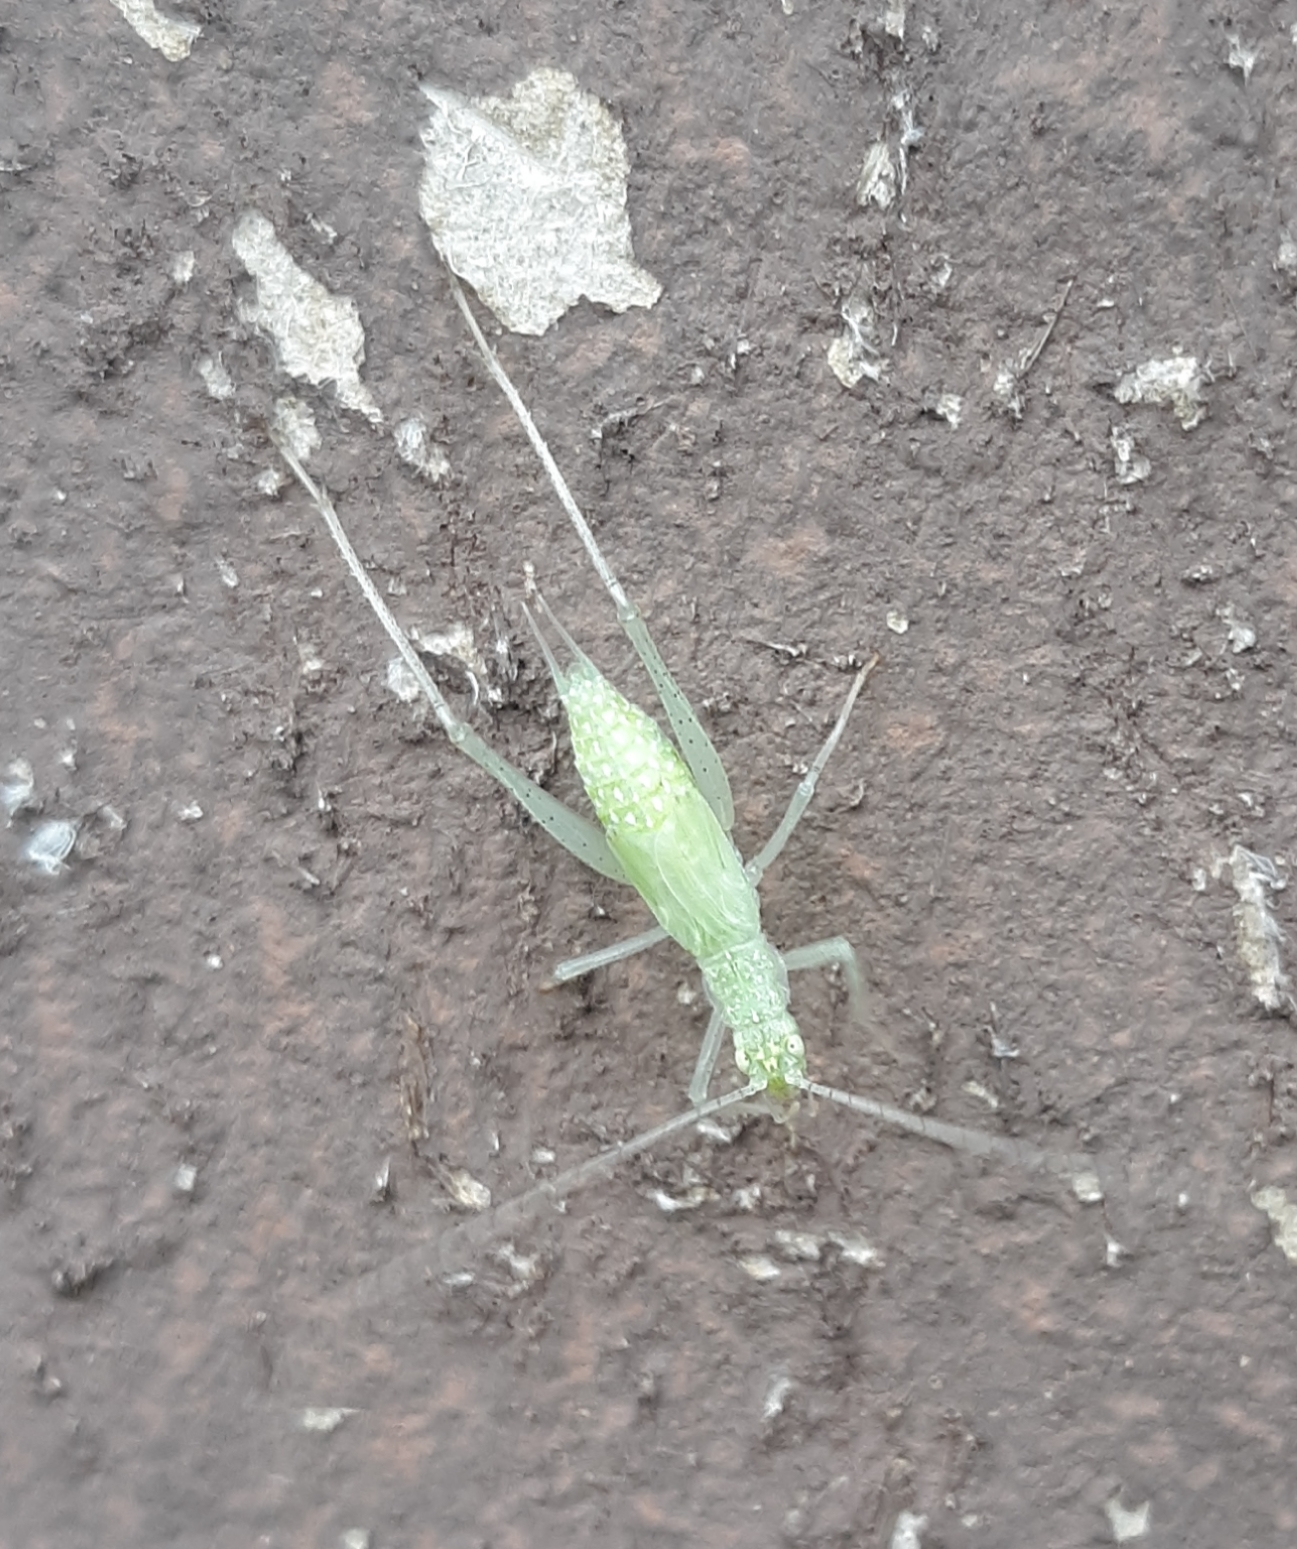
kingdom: Animalia
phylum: Arthropoda
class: Insecta
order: Orthoptera
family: Gryllidae
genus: Oecanthus
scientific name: Oecanthus fultoni
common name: Snowy tree cricket
